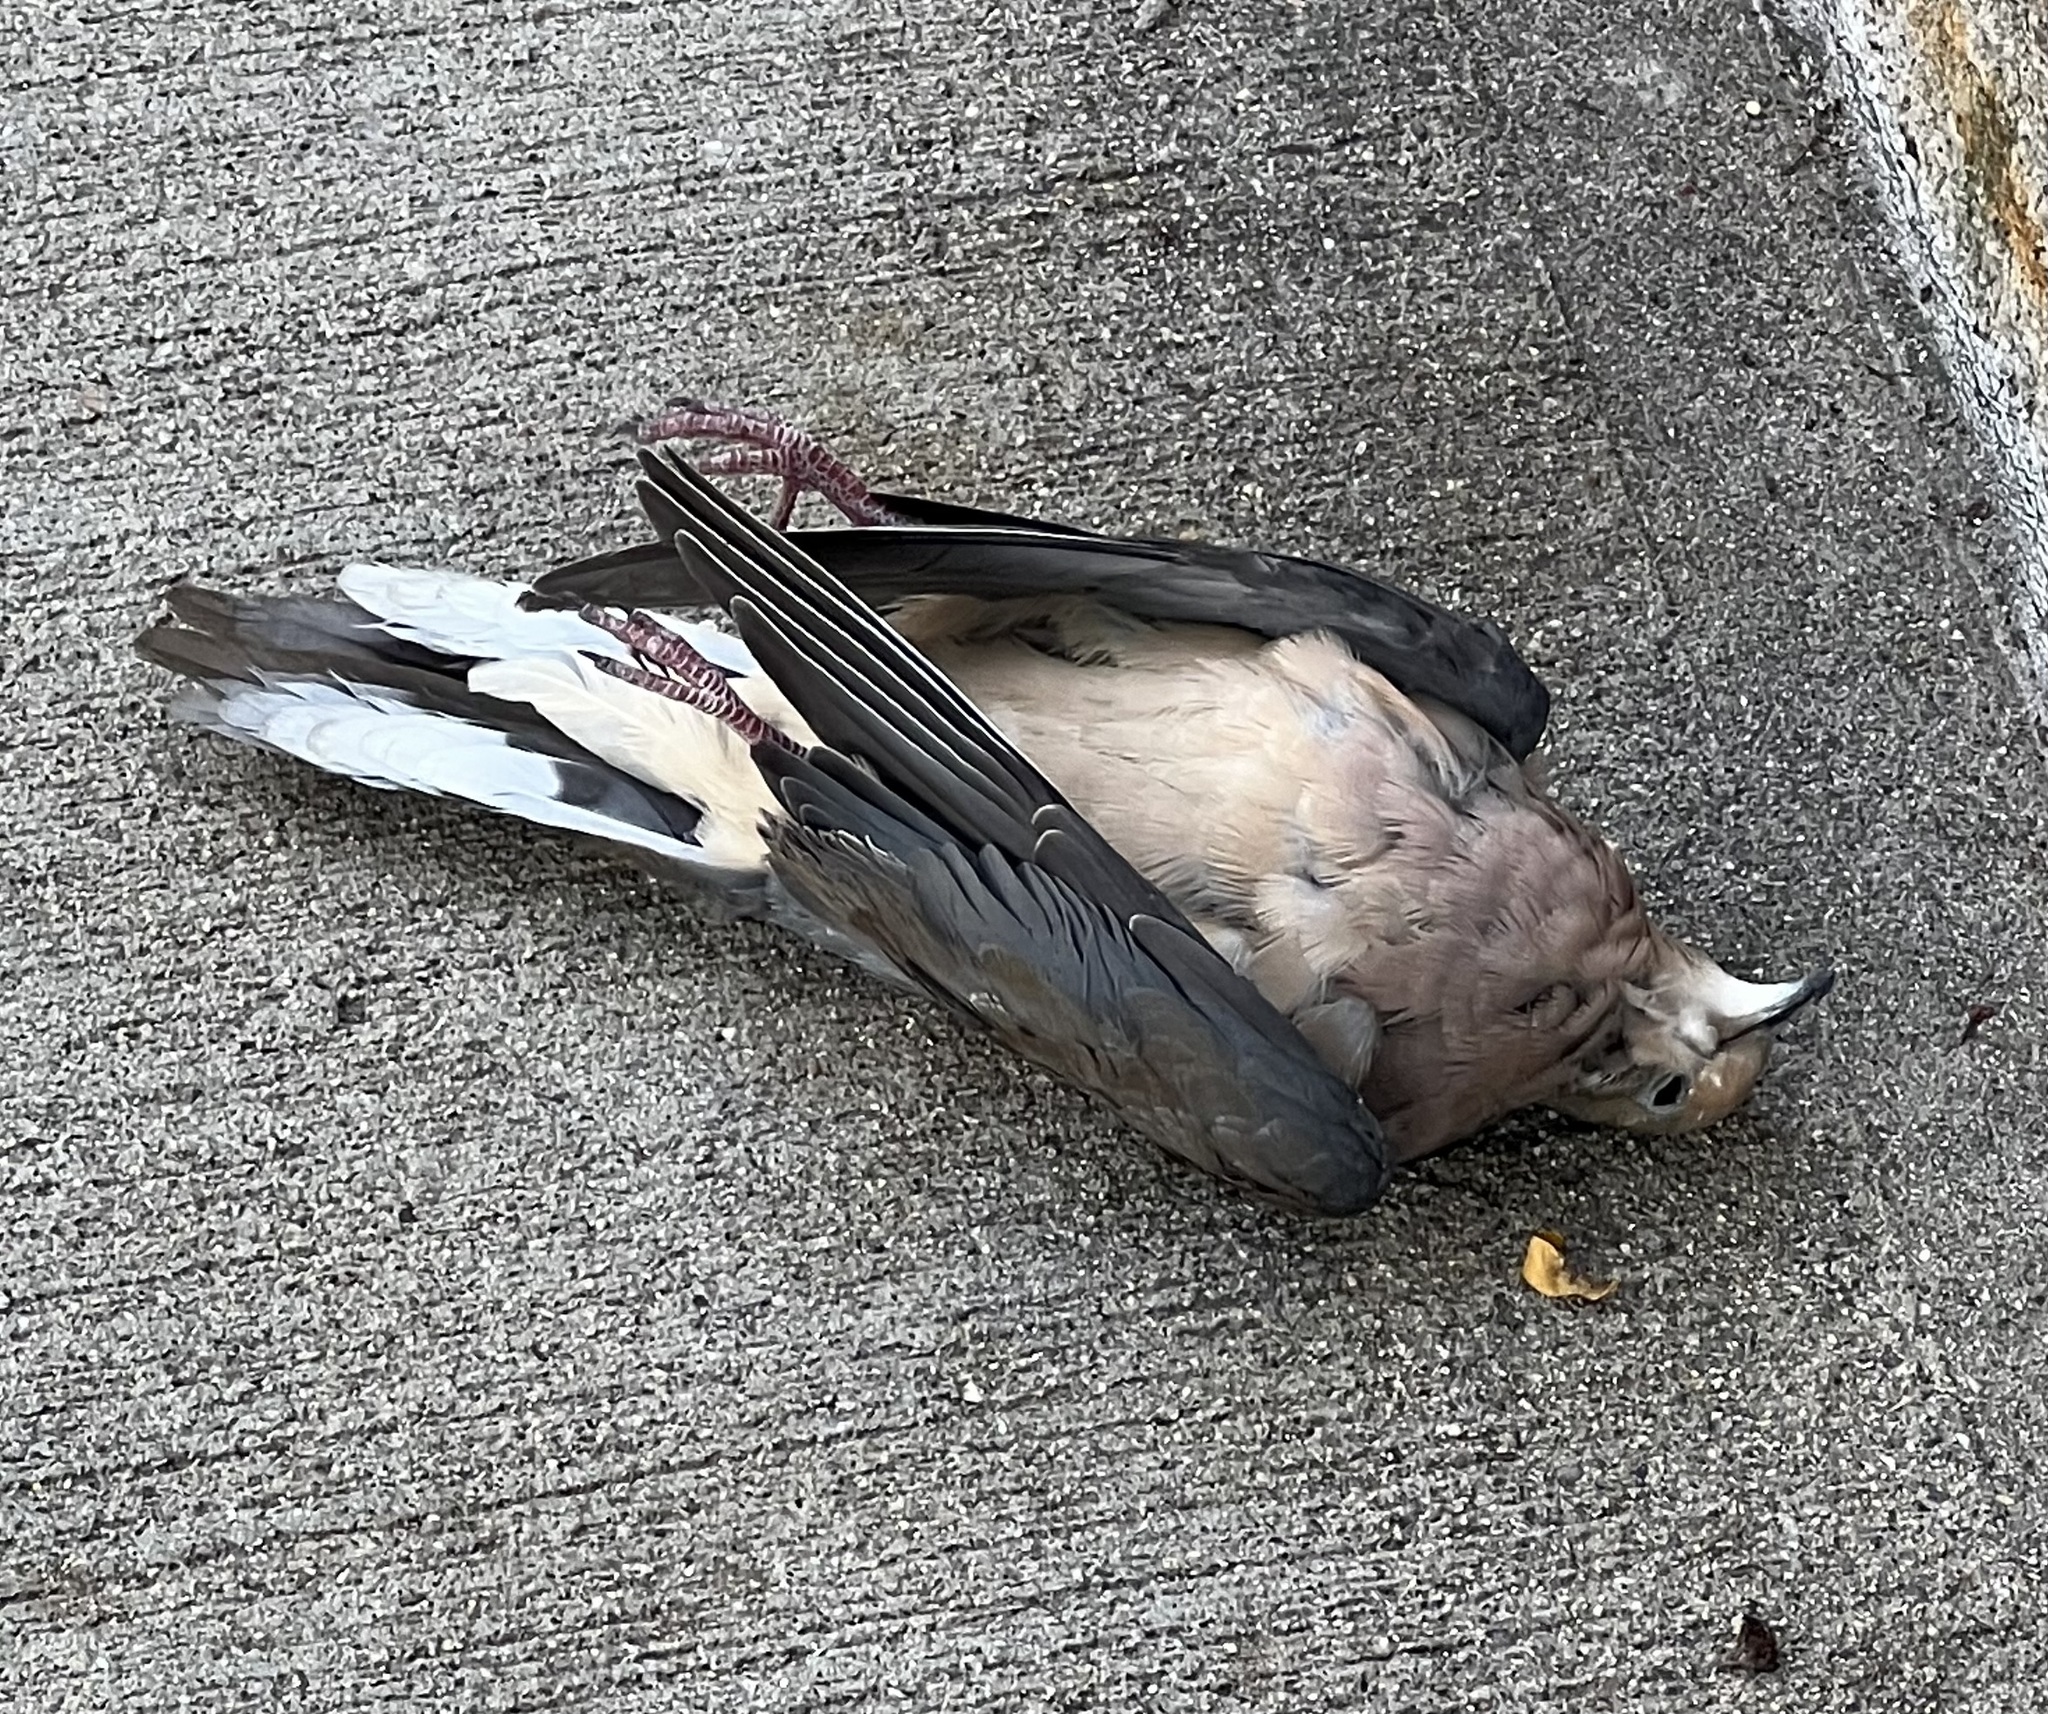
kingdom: Animalia
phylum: Chordata
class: Aves
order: Columbiformes
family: Columbidae
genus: Zenaida
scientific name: Zenaida macroura
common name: Mourning dove
